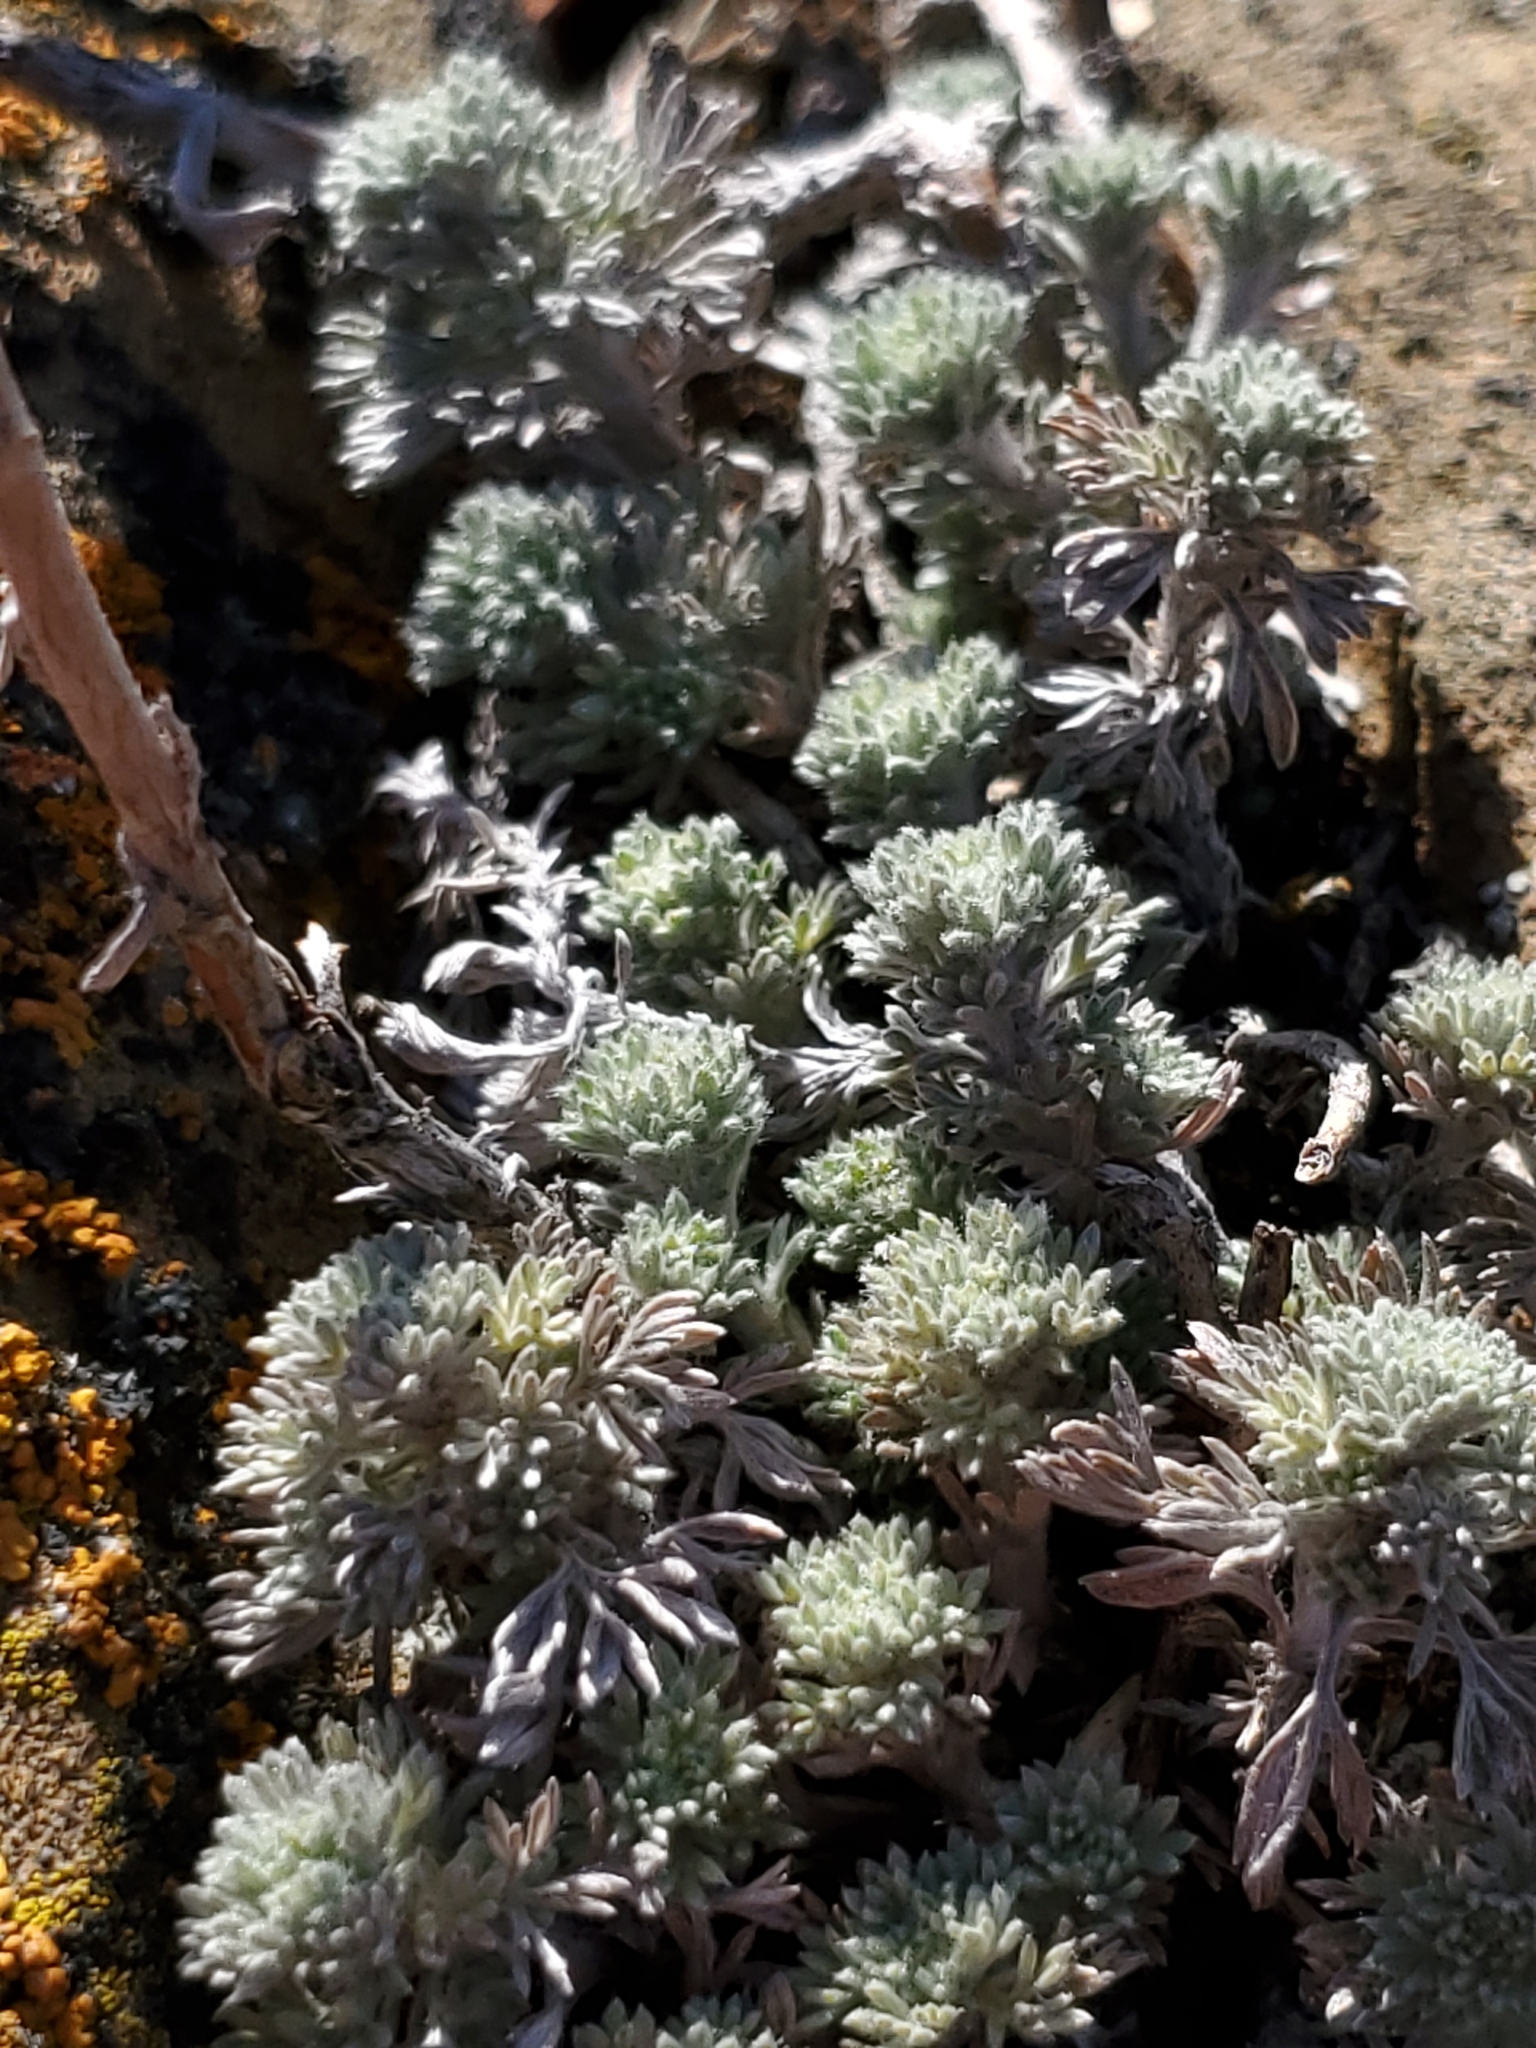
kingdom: Plantae
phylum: Tracheophyta
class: Magnoliopsida
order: Asterales
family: Asteraceae
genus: Artemisia
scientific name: Artemisia frigida
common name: Prairie sagewort
